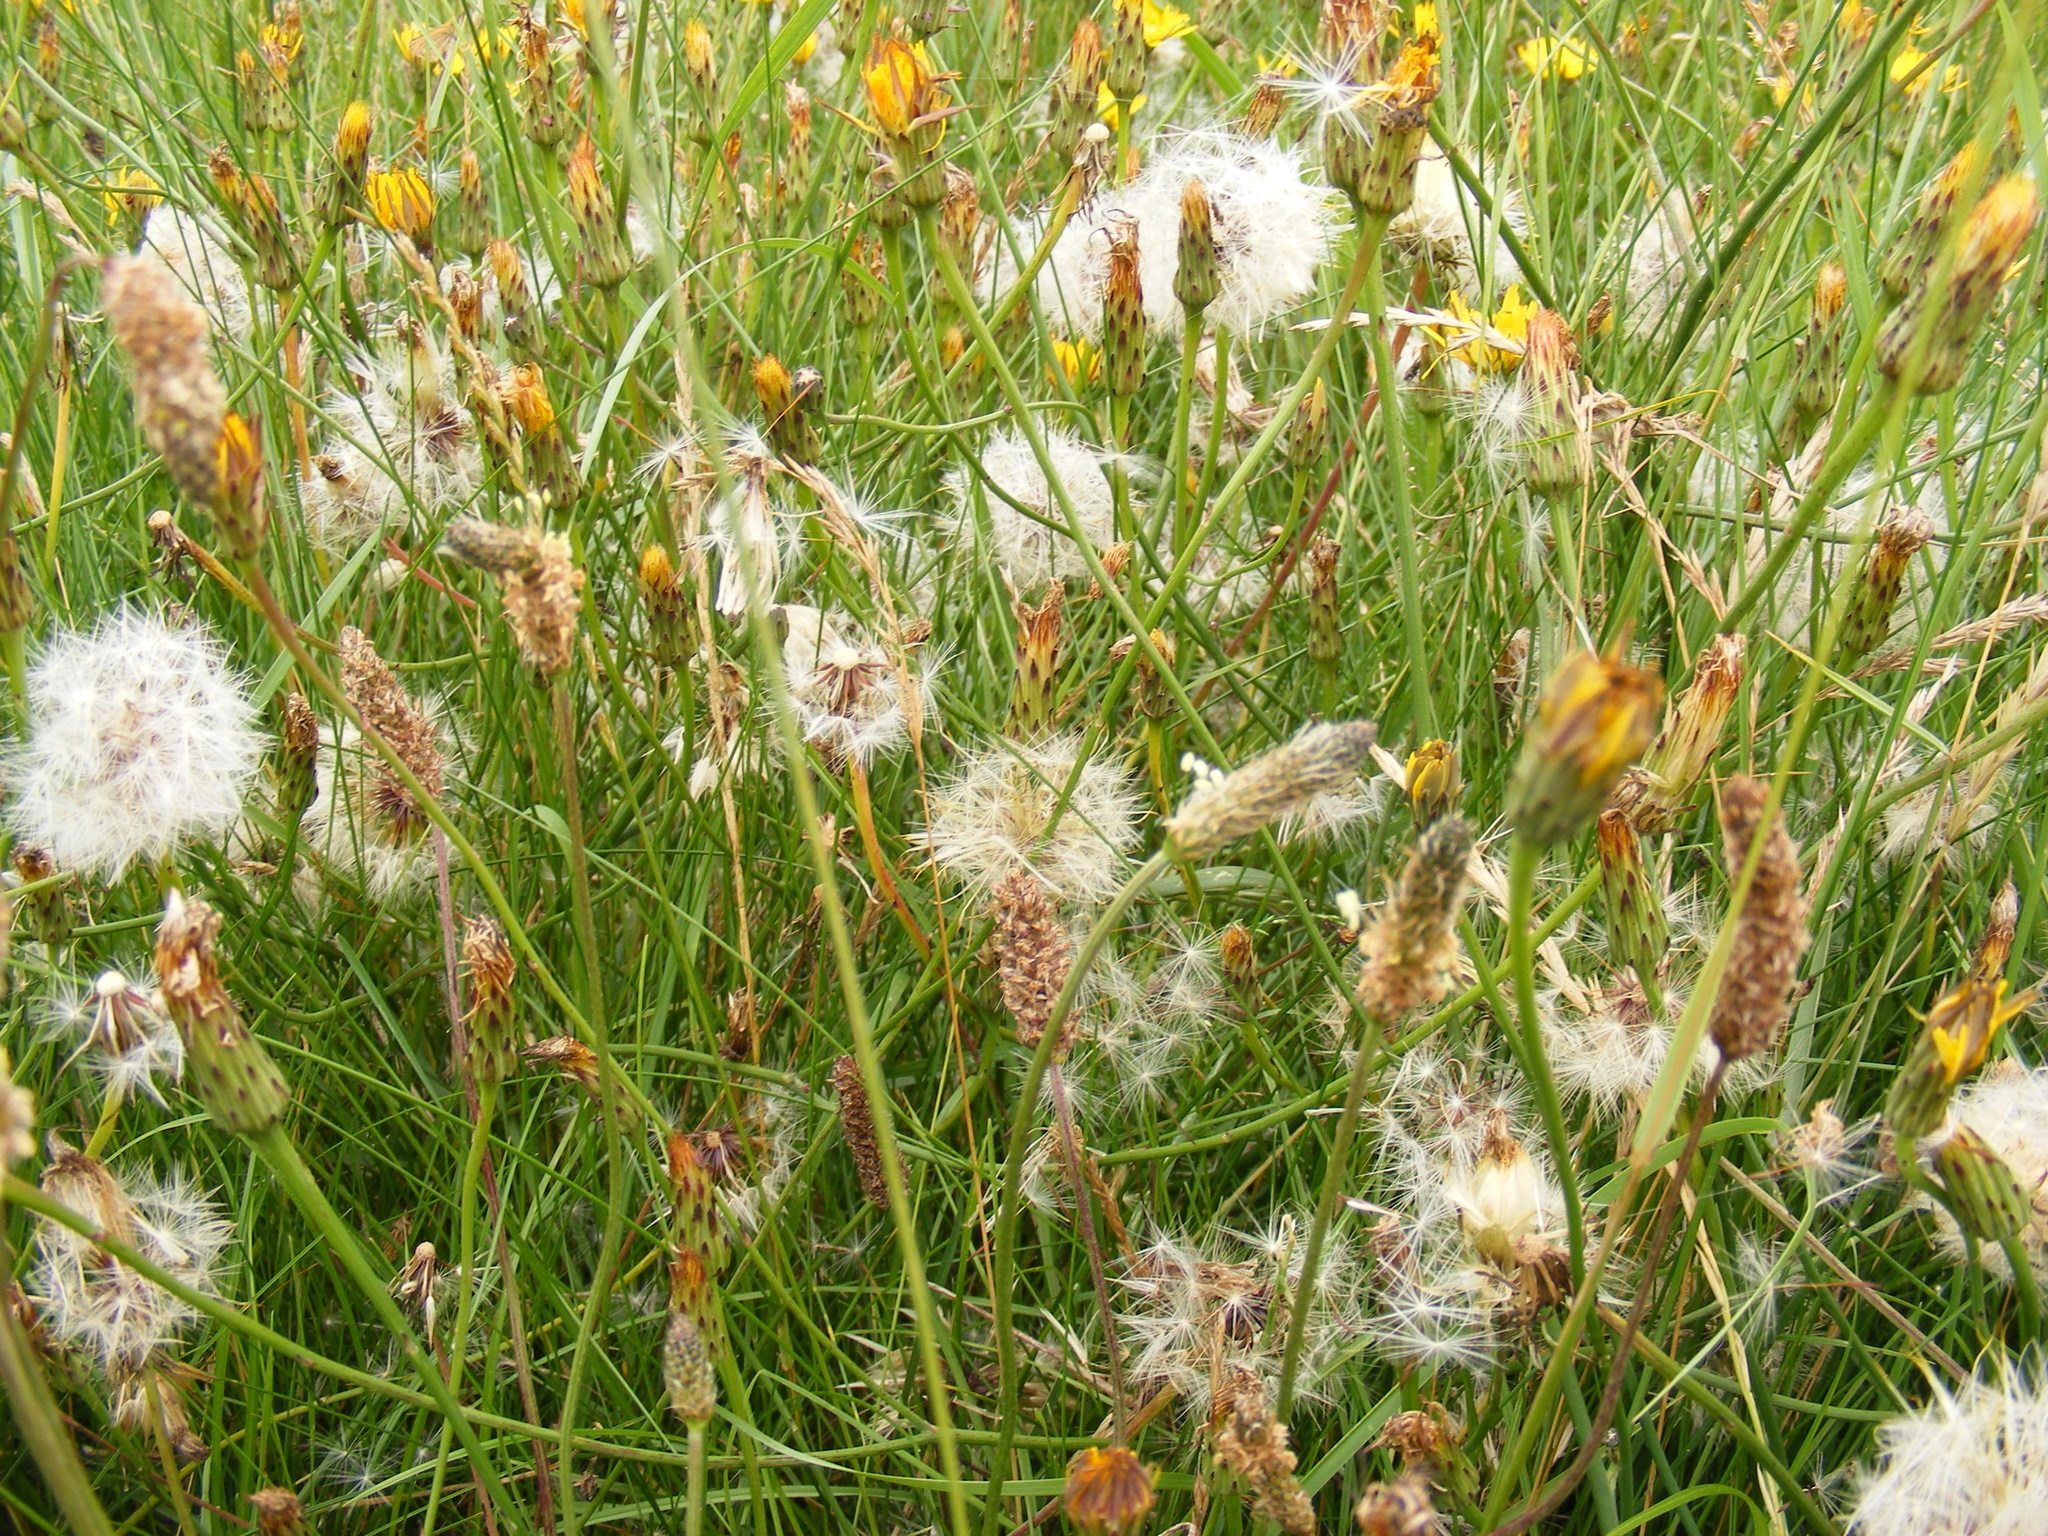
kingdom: Plantae
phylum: Tracheophyta
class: Magnoliopsida
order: Asterales
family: Asteraceae
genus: Hypochaeris
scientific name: Hypochaeris radicata
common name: Flatweed
